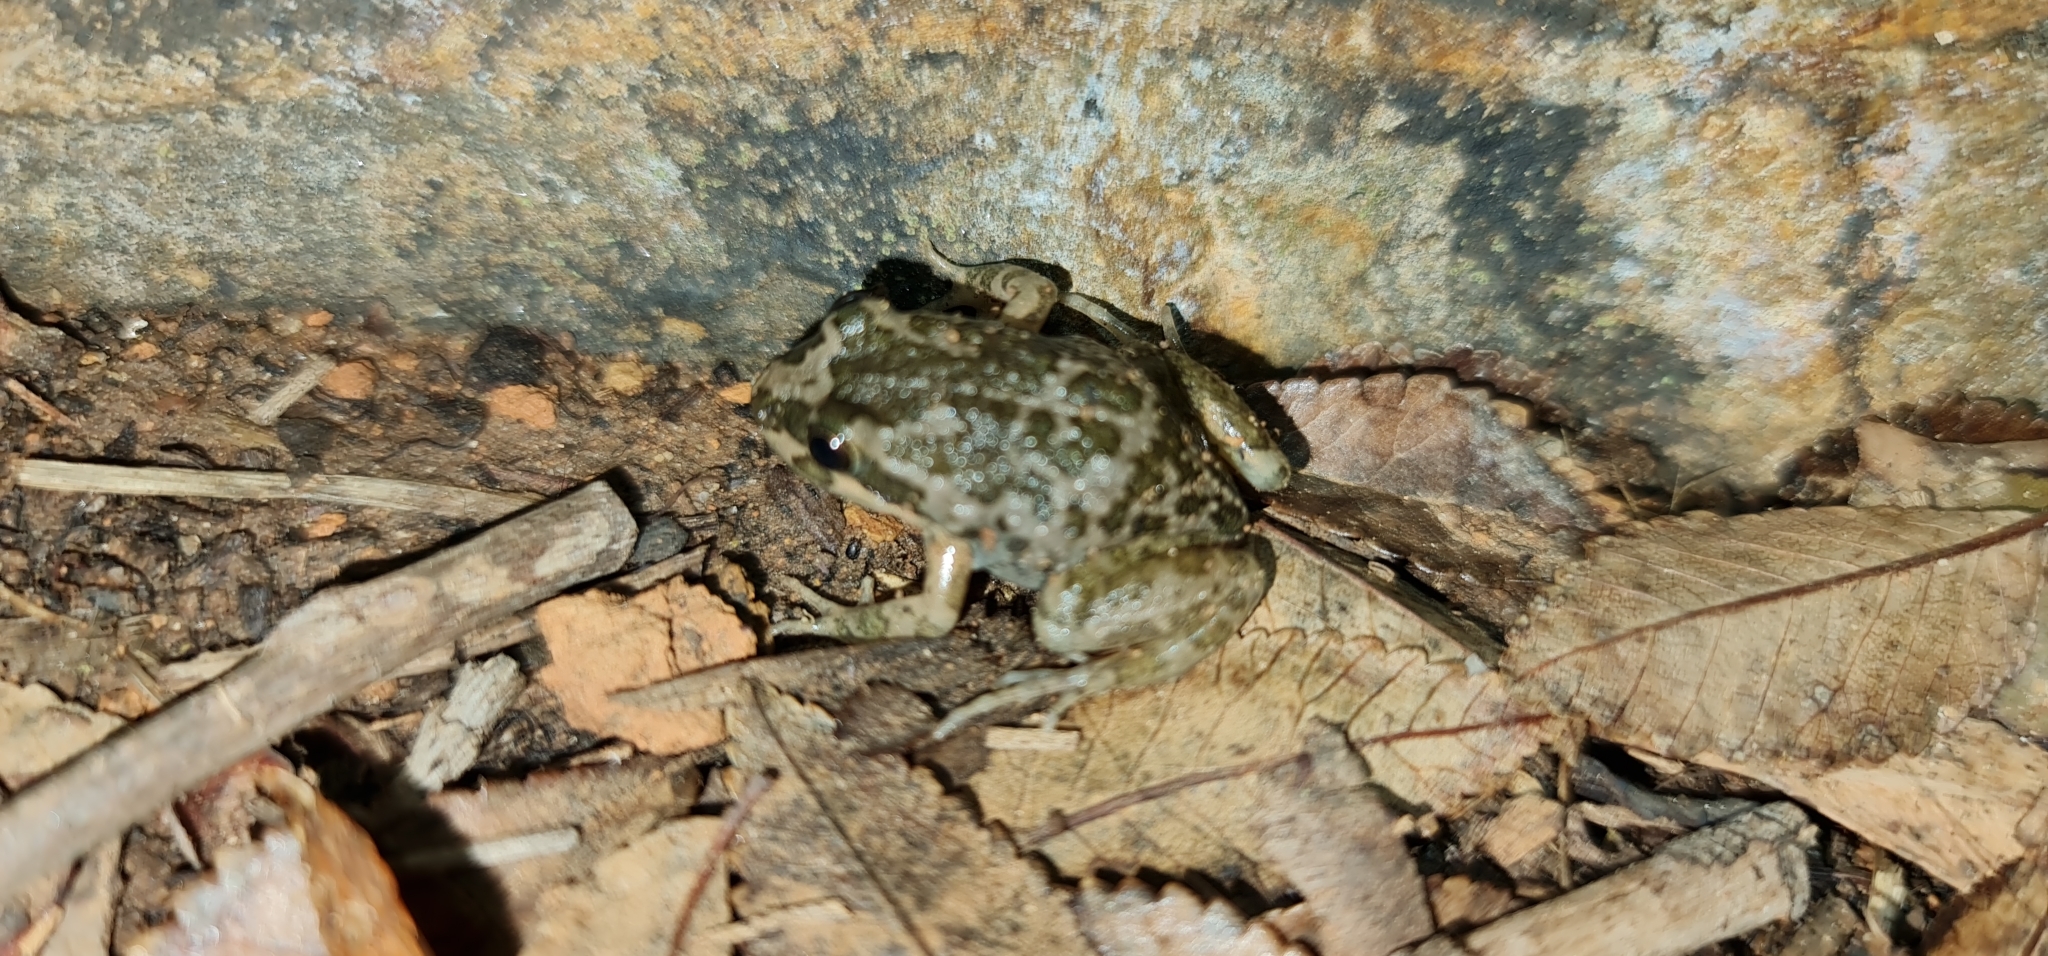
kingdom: Animalia
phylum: Chordata
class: Amphibia
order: Anura
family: Limnodynastidae
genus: Limnodynastes
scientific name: Limnodynastes tasmaniensis
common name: Spotted marsh frog
